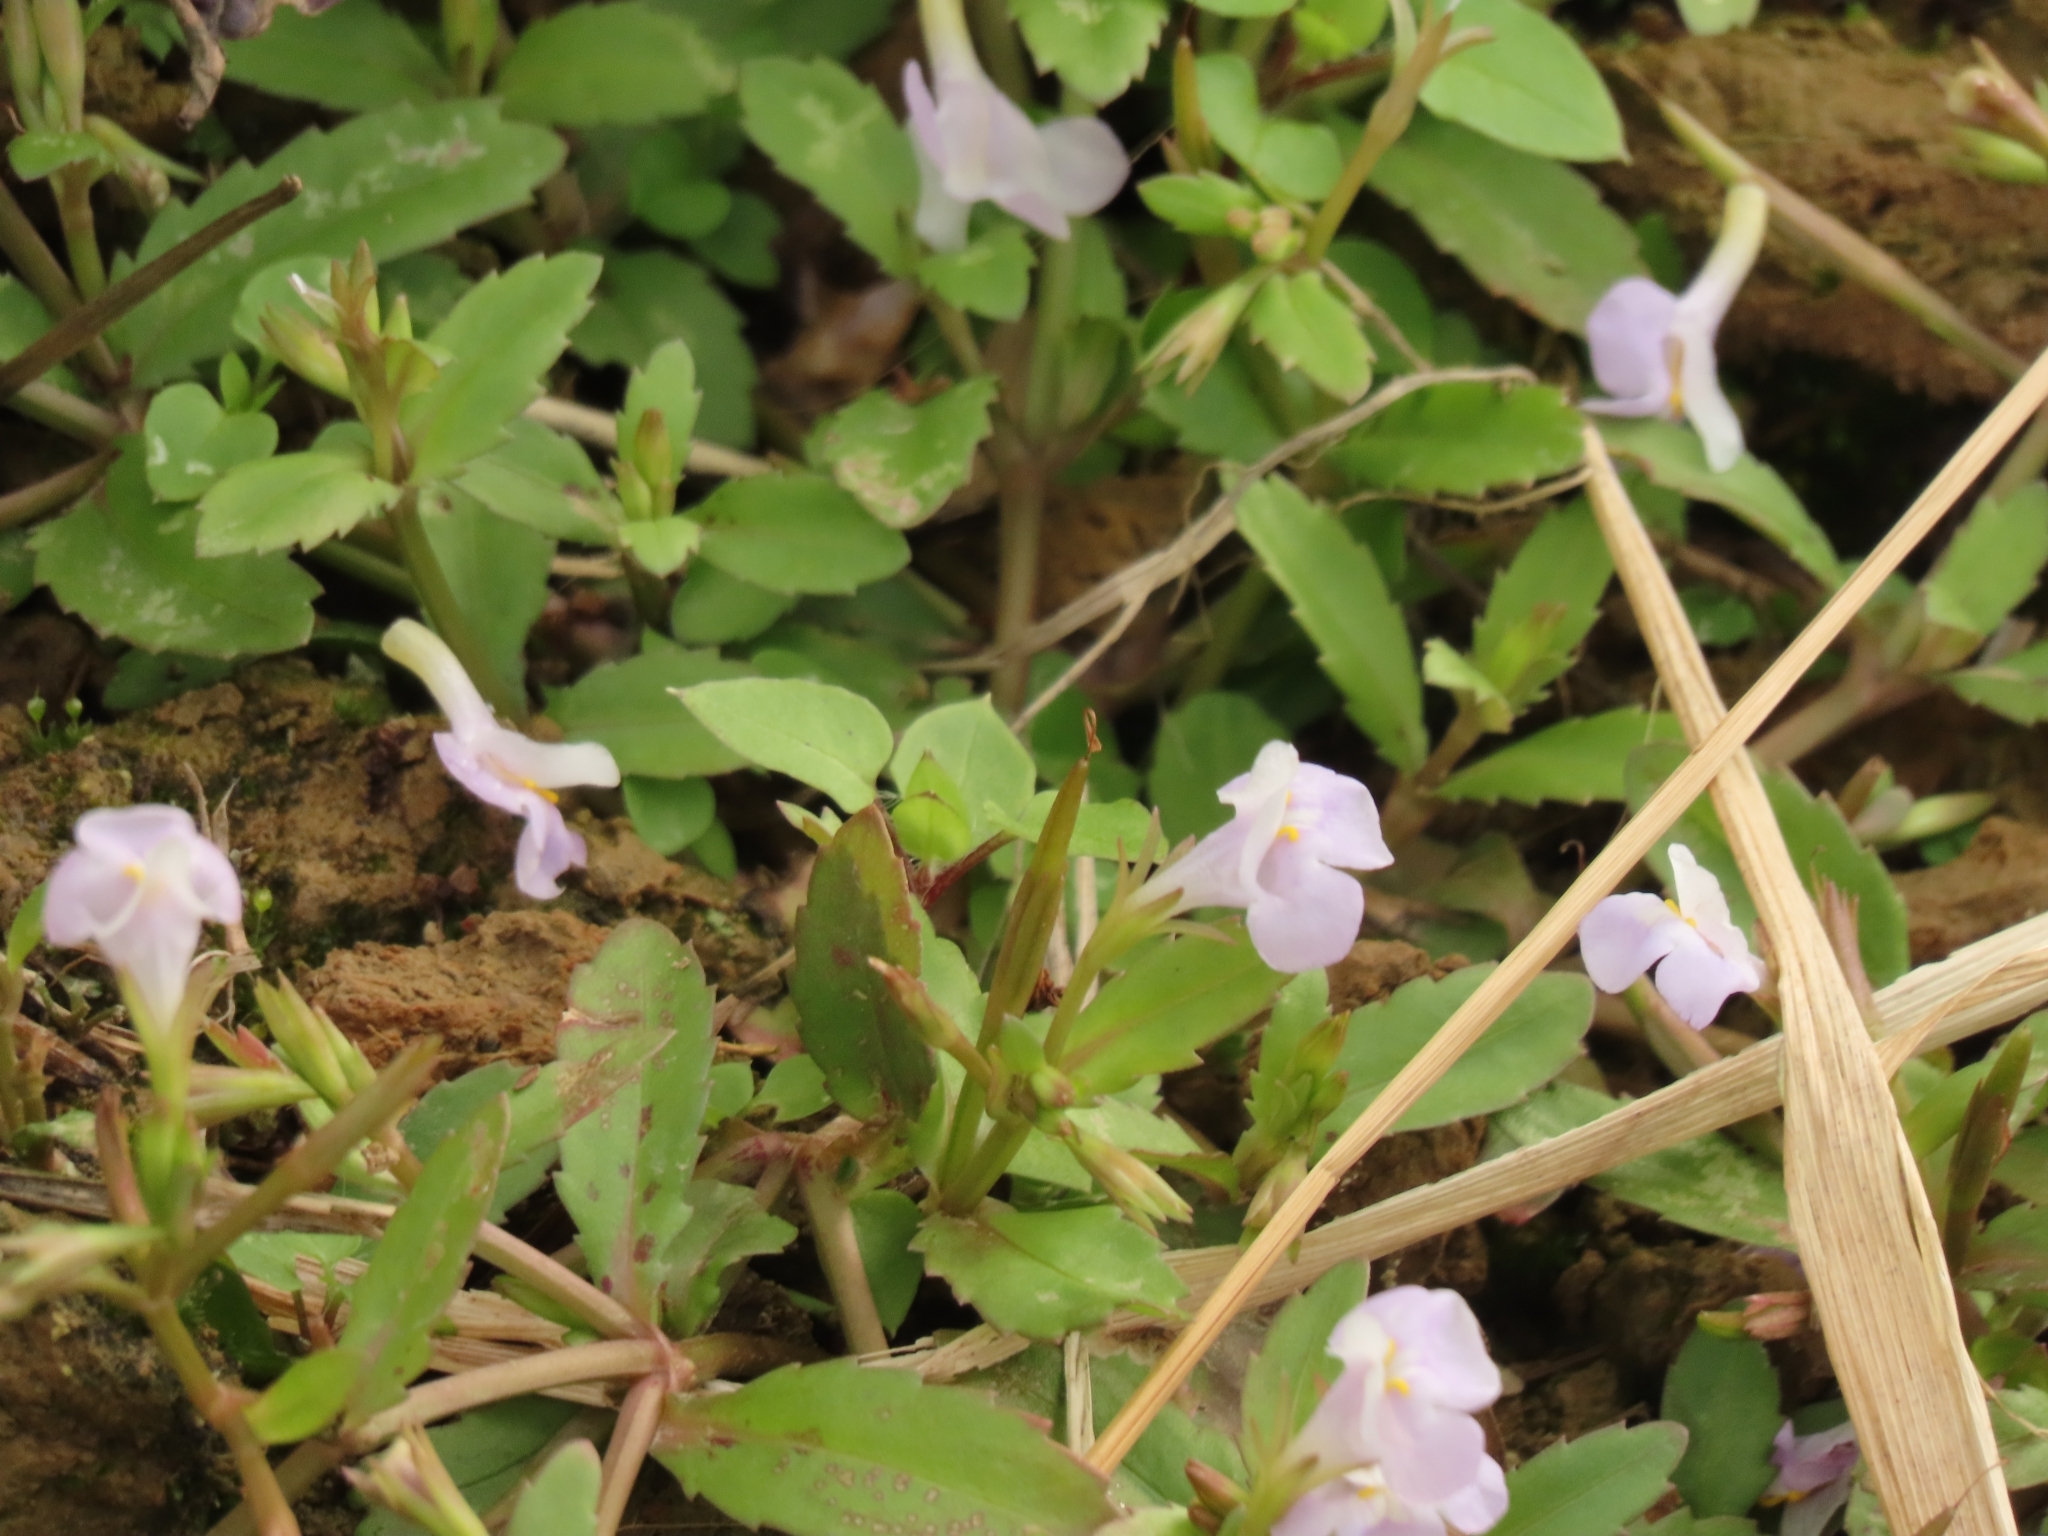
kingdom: Plantae
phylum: Tracheophyta
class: Magnoliopsida
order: Lamiales
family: Linderniaceae
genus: Bonnaya
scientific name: Bonnaya antipoda
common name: Sparrow false pimpernel
